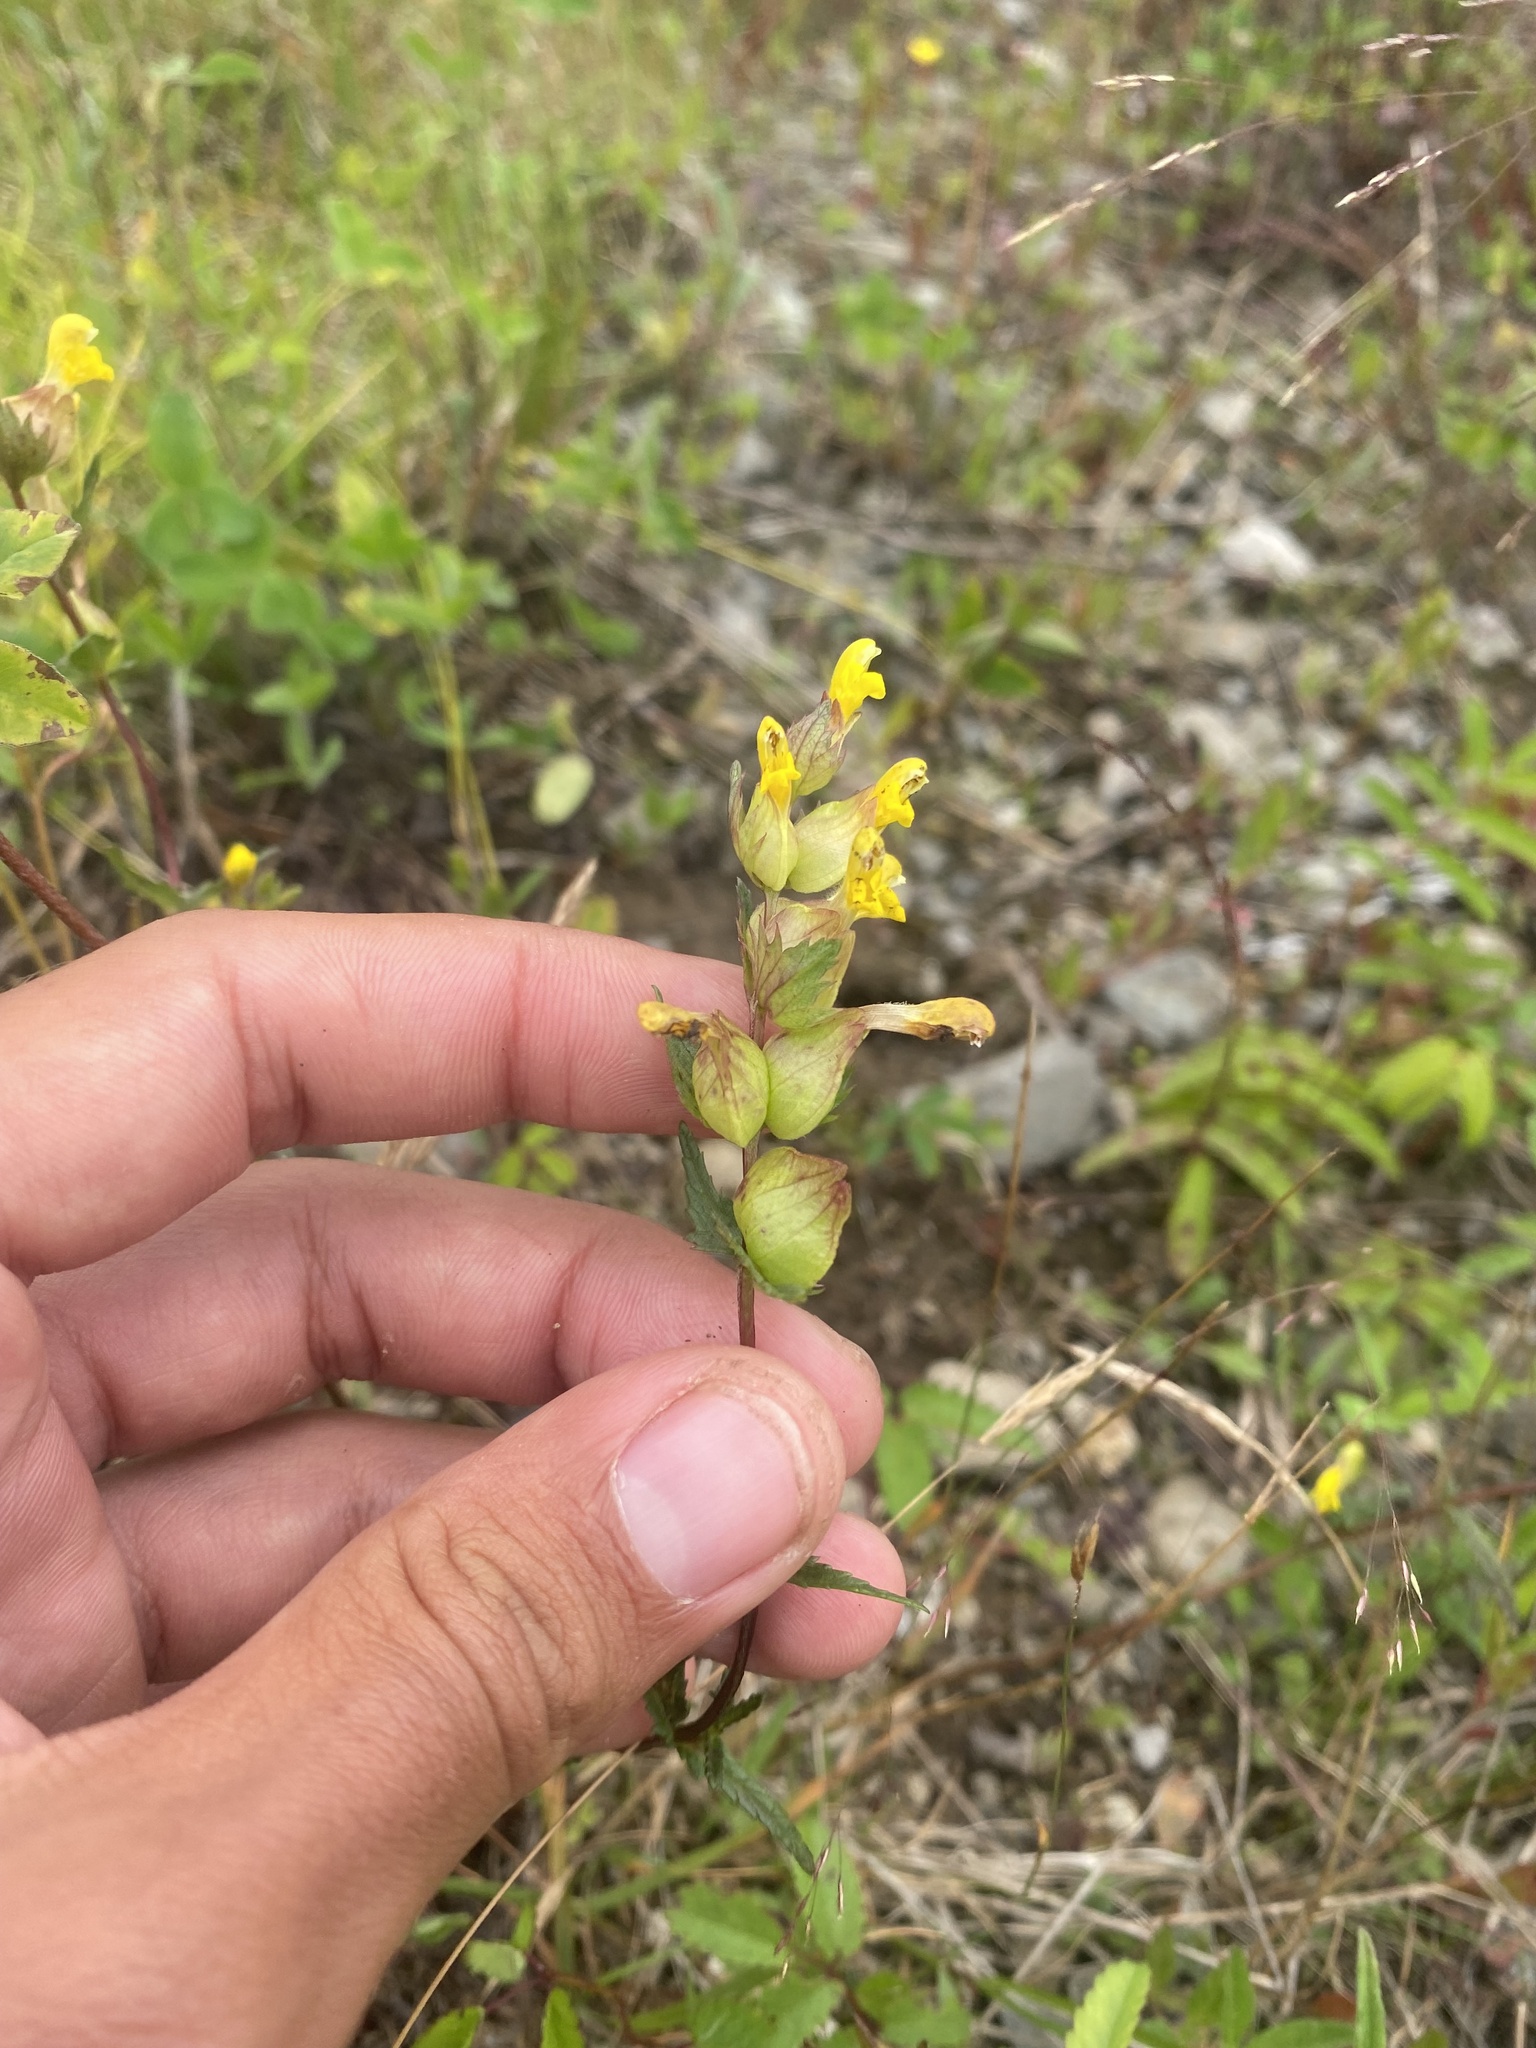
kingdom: Plantae
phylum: Tracheophyta
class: Magnoliopsida
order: Lamiales
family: Orobanchaceae
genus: Rhinanthus
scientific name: Rhinanthus minor
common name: Yellow-rattle
